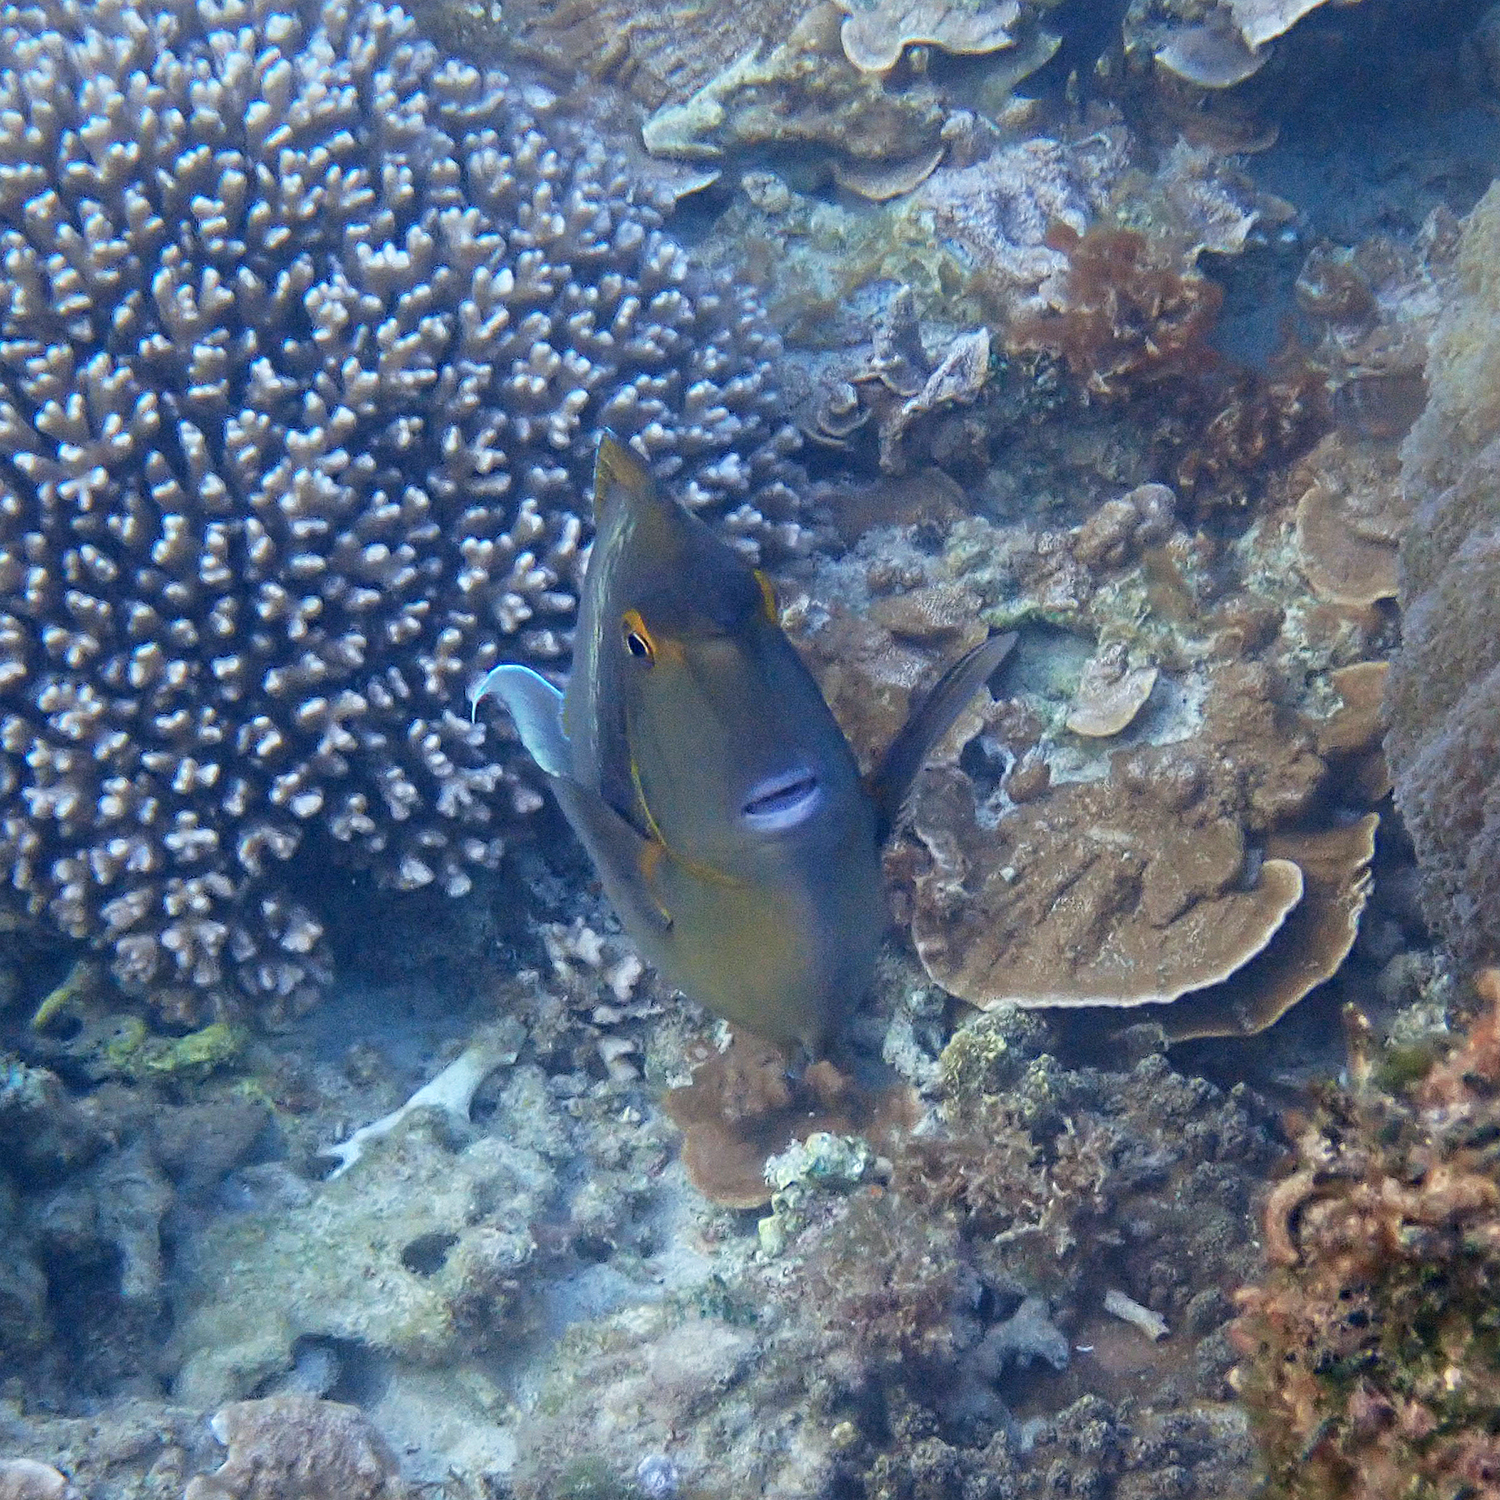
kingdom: Animalia
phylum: Chordata
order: Perciformes
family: Acanthuridae
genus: Naso
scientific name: Naso unicornis
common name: Bluespine unicornfish
